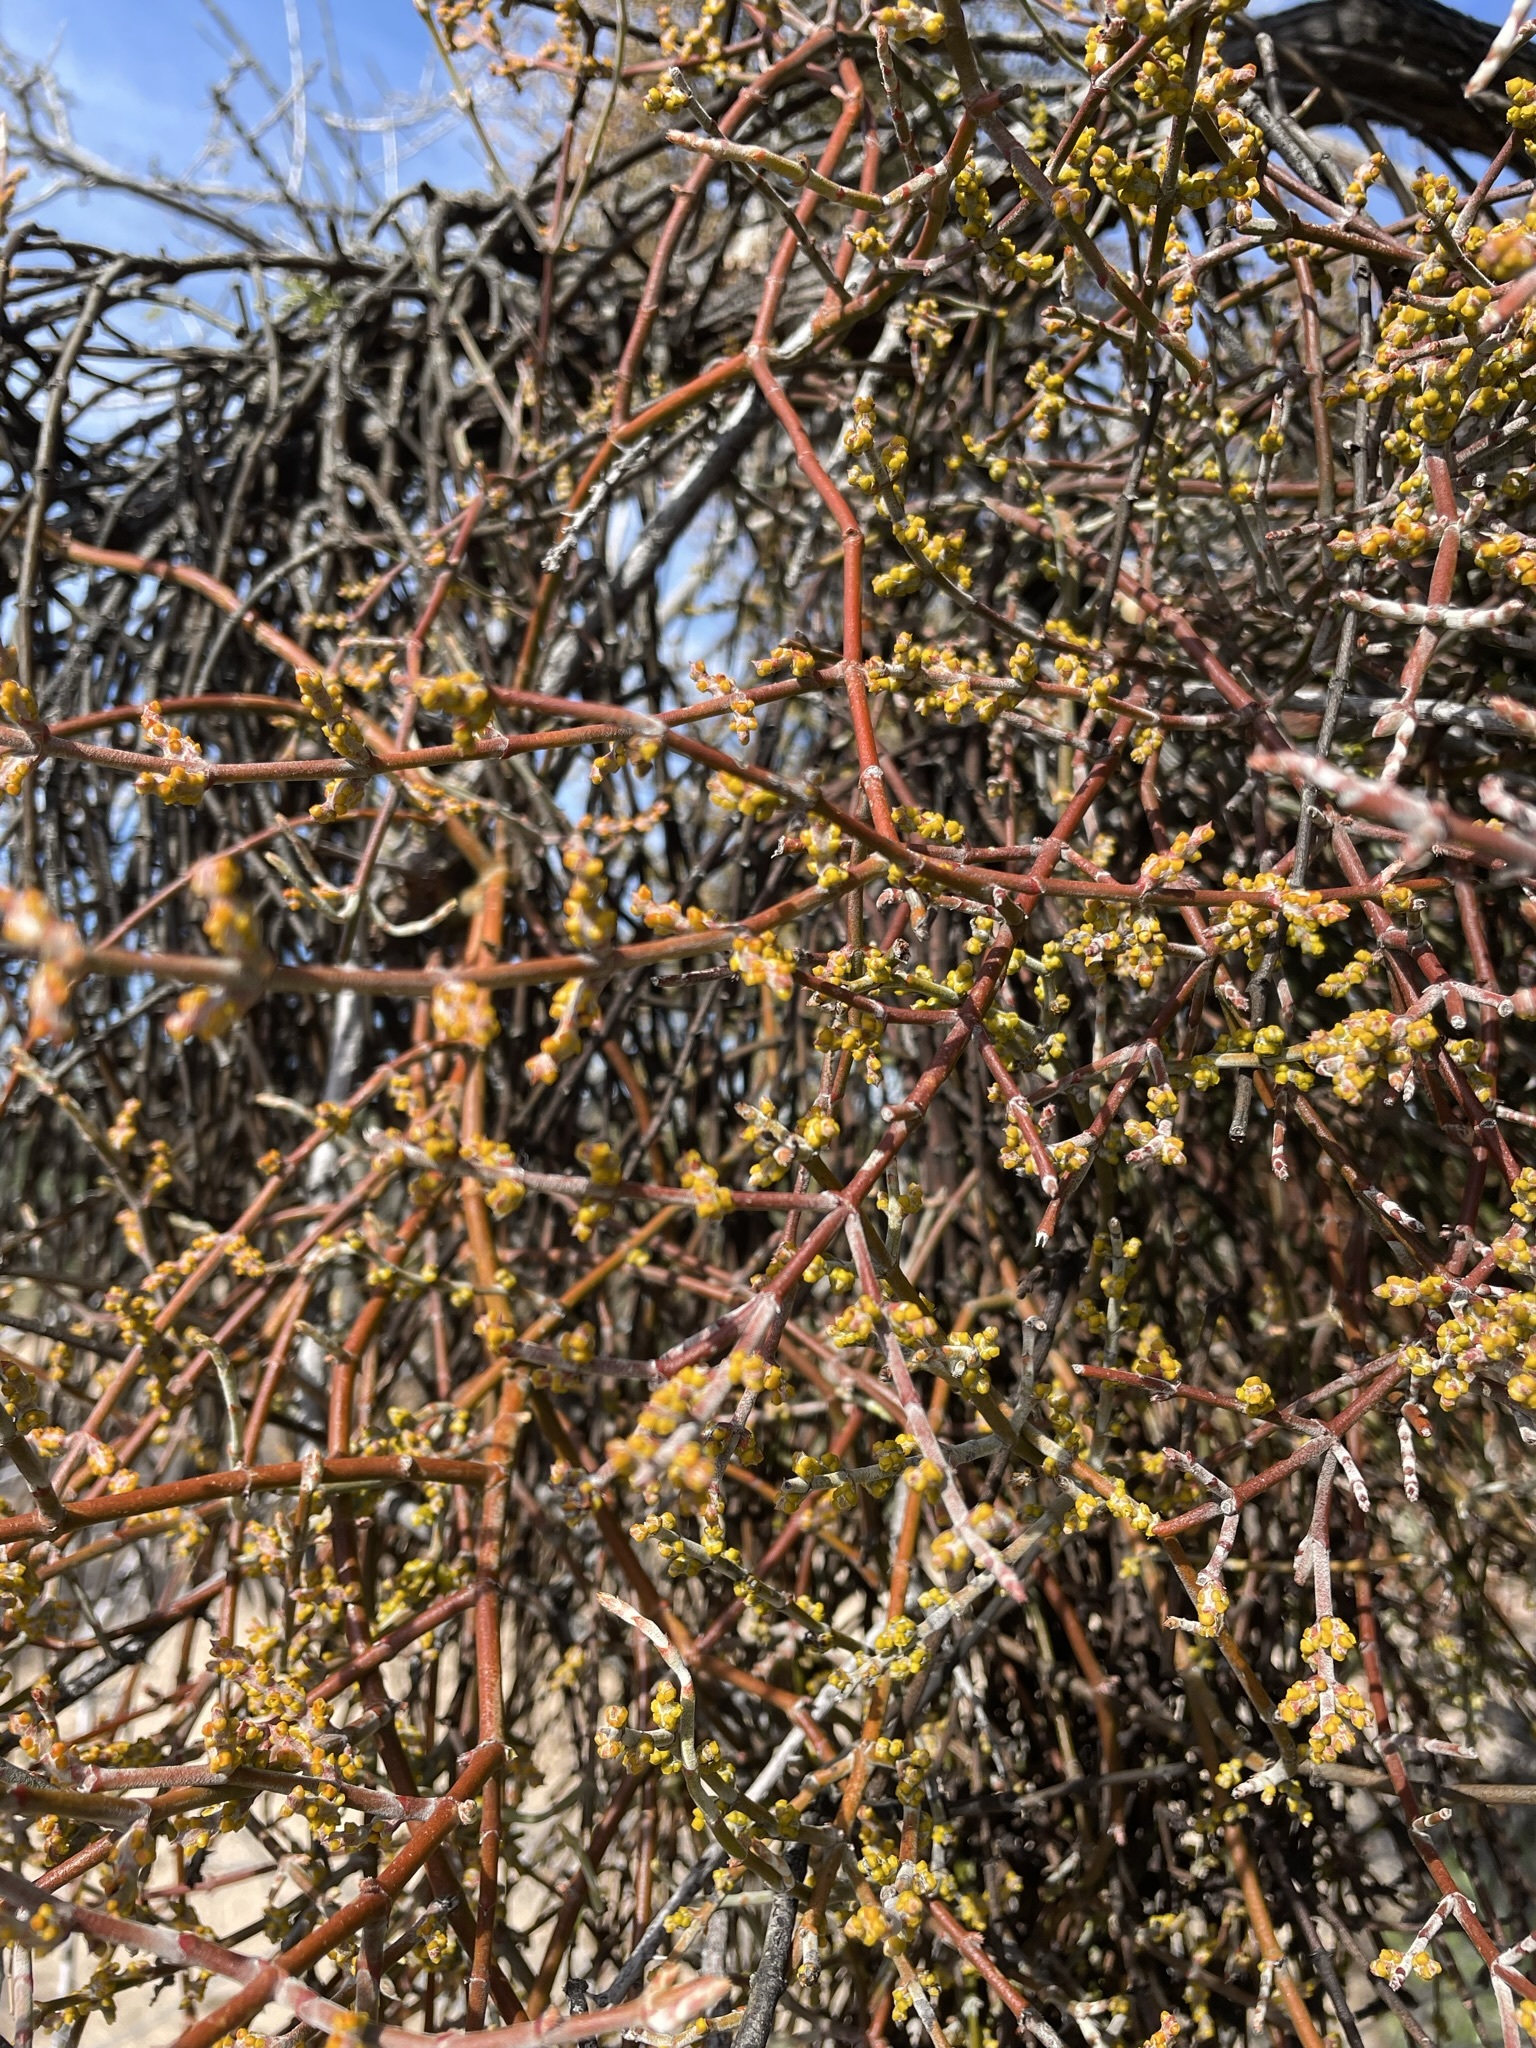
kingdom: Plantae
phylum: Tracheophyta
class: Magnoliopsida
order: Santalales
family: Viscaceae
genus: Phoradendron
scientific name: Phoradendron californicum
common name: Acacia mistletoe
